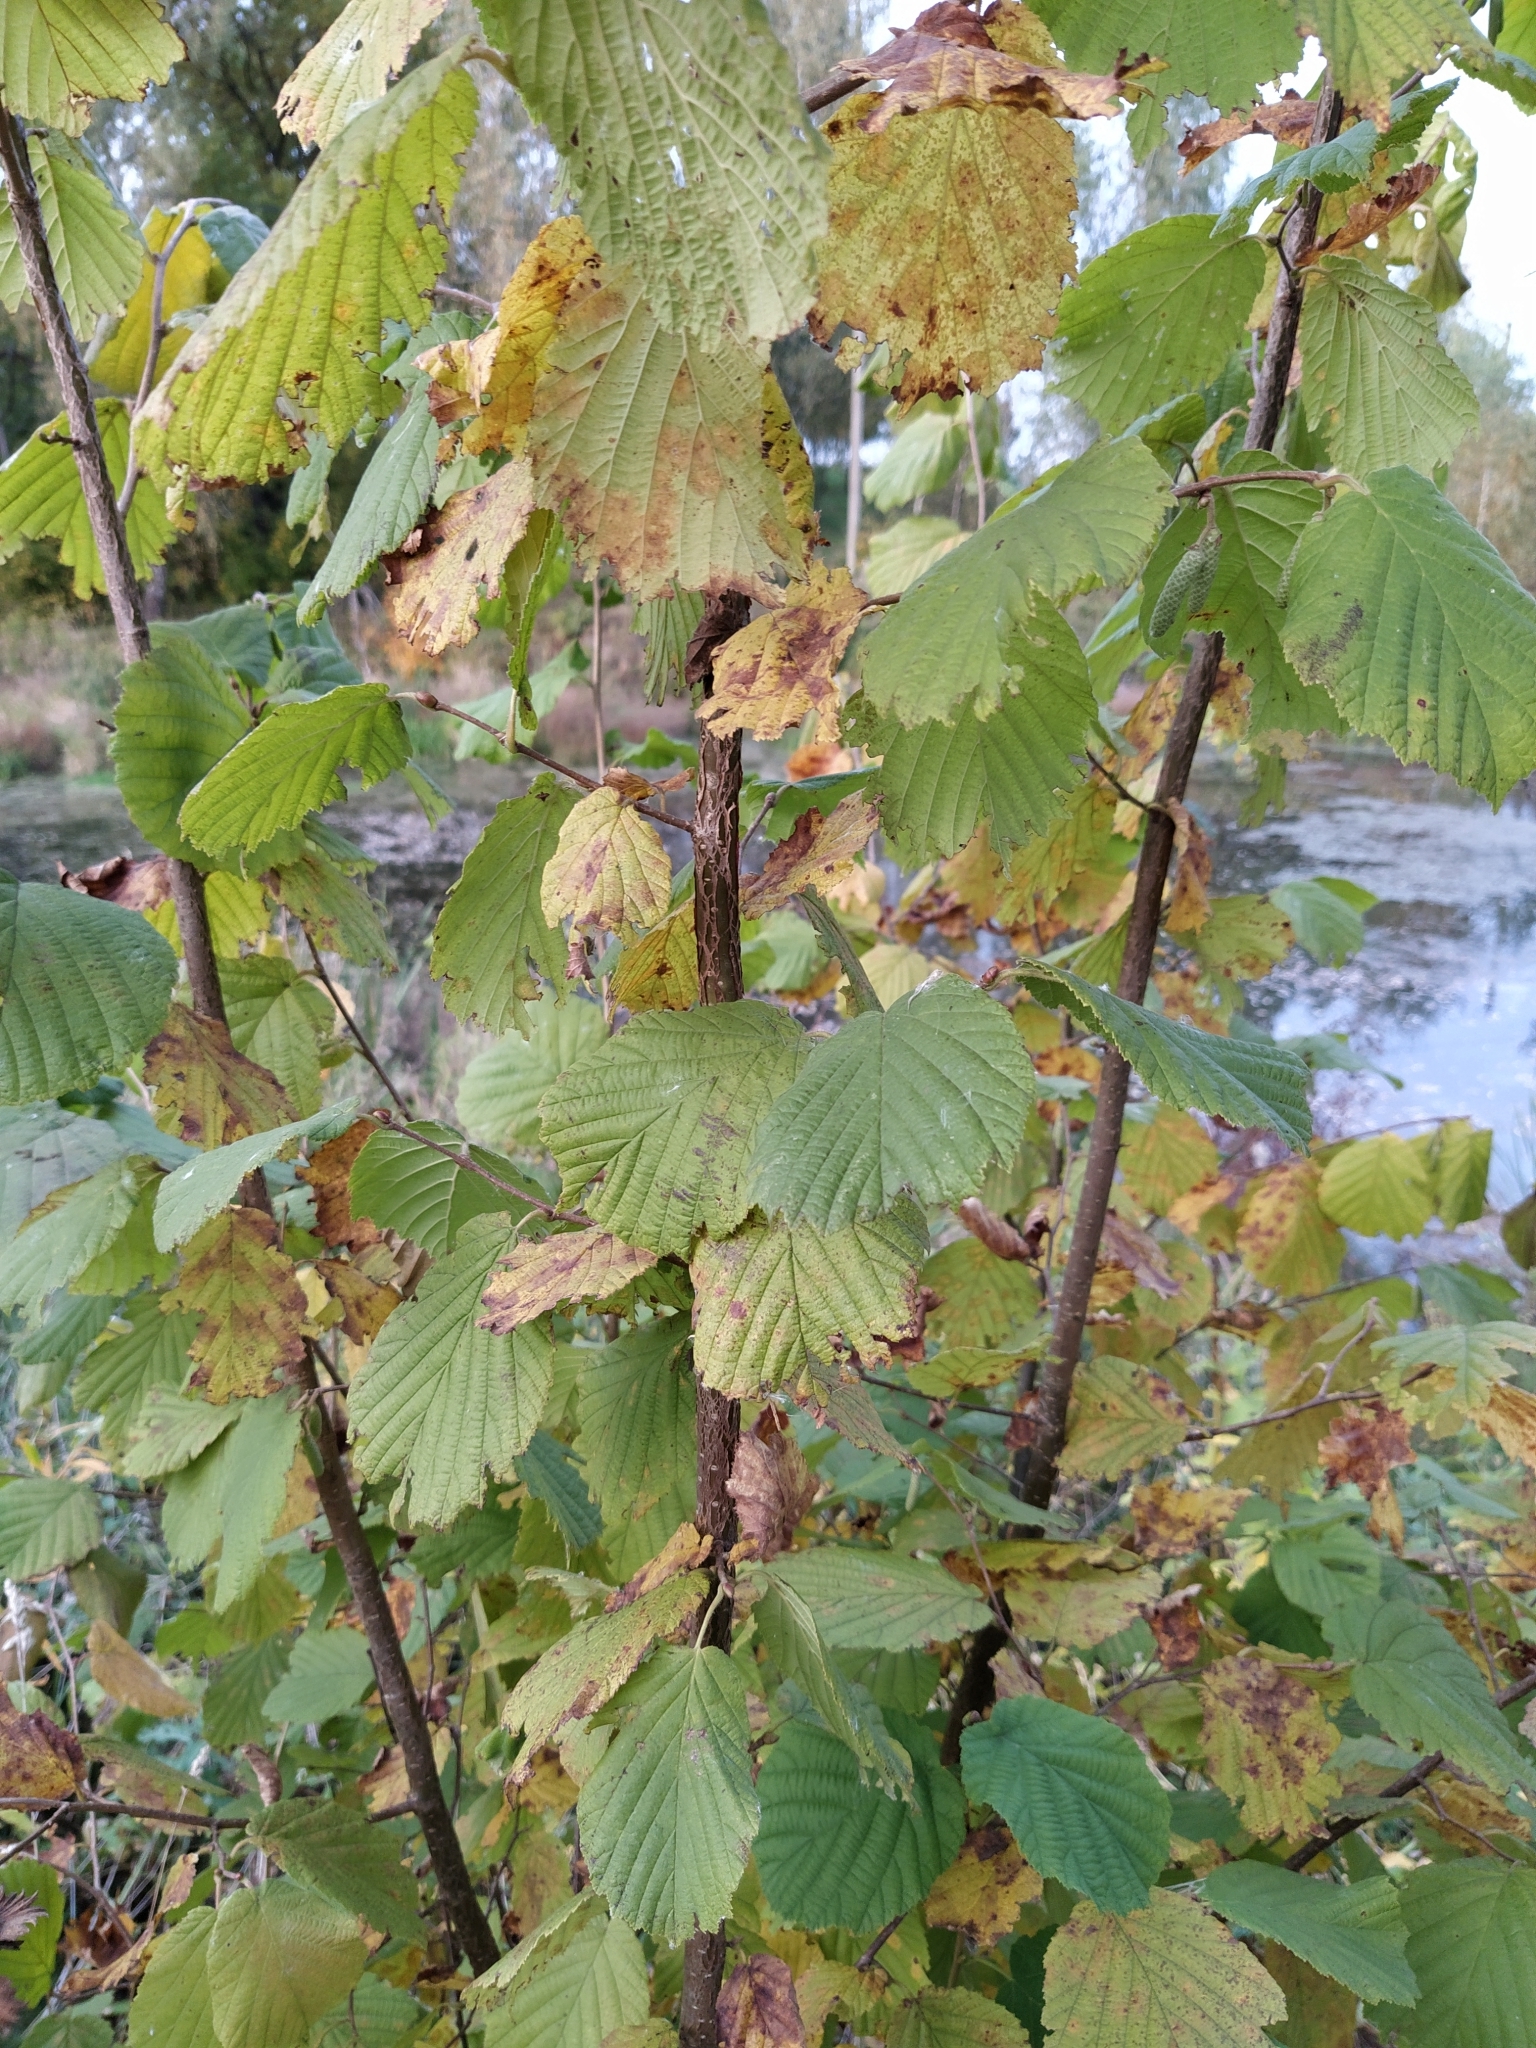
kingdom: Plantae
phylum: Tracheophyta
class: Magnoliopsida
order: Fagales
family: Betulaceae
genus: Corylus
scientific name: Corylus avellana
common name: European hazel
